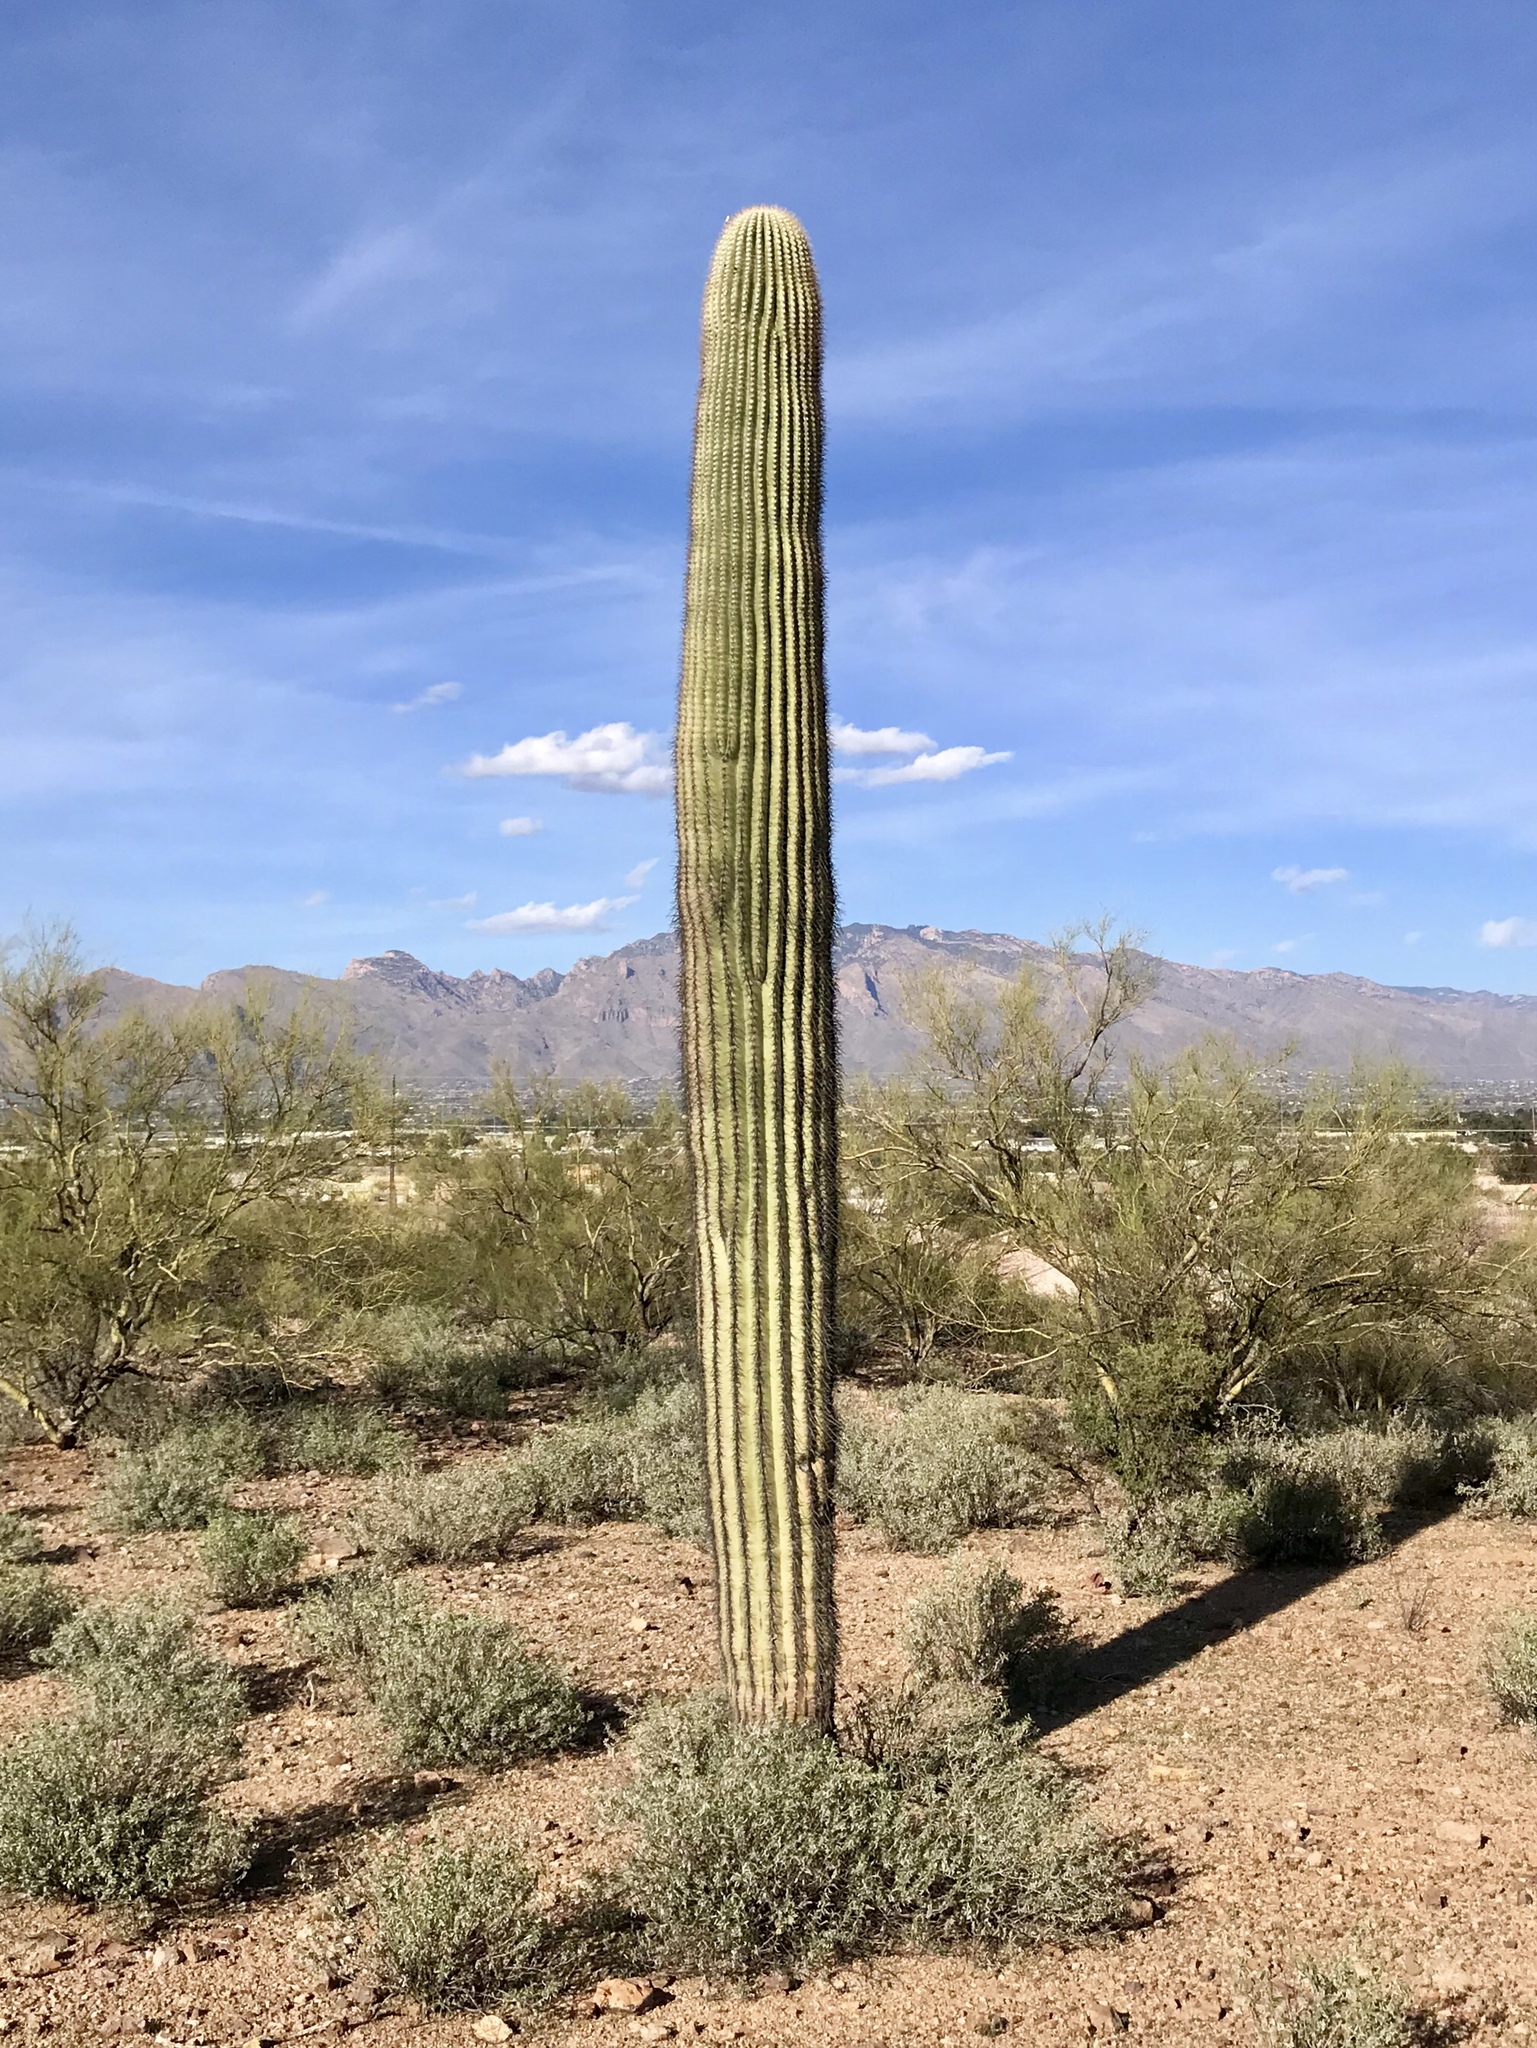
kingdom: Plantae
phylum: Tracheophyta
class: Magnoliopsida
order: Caryophyllales
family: Cactaceae
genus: Carnegiea
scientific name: Carnegiea gigantea
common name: Saguaro
